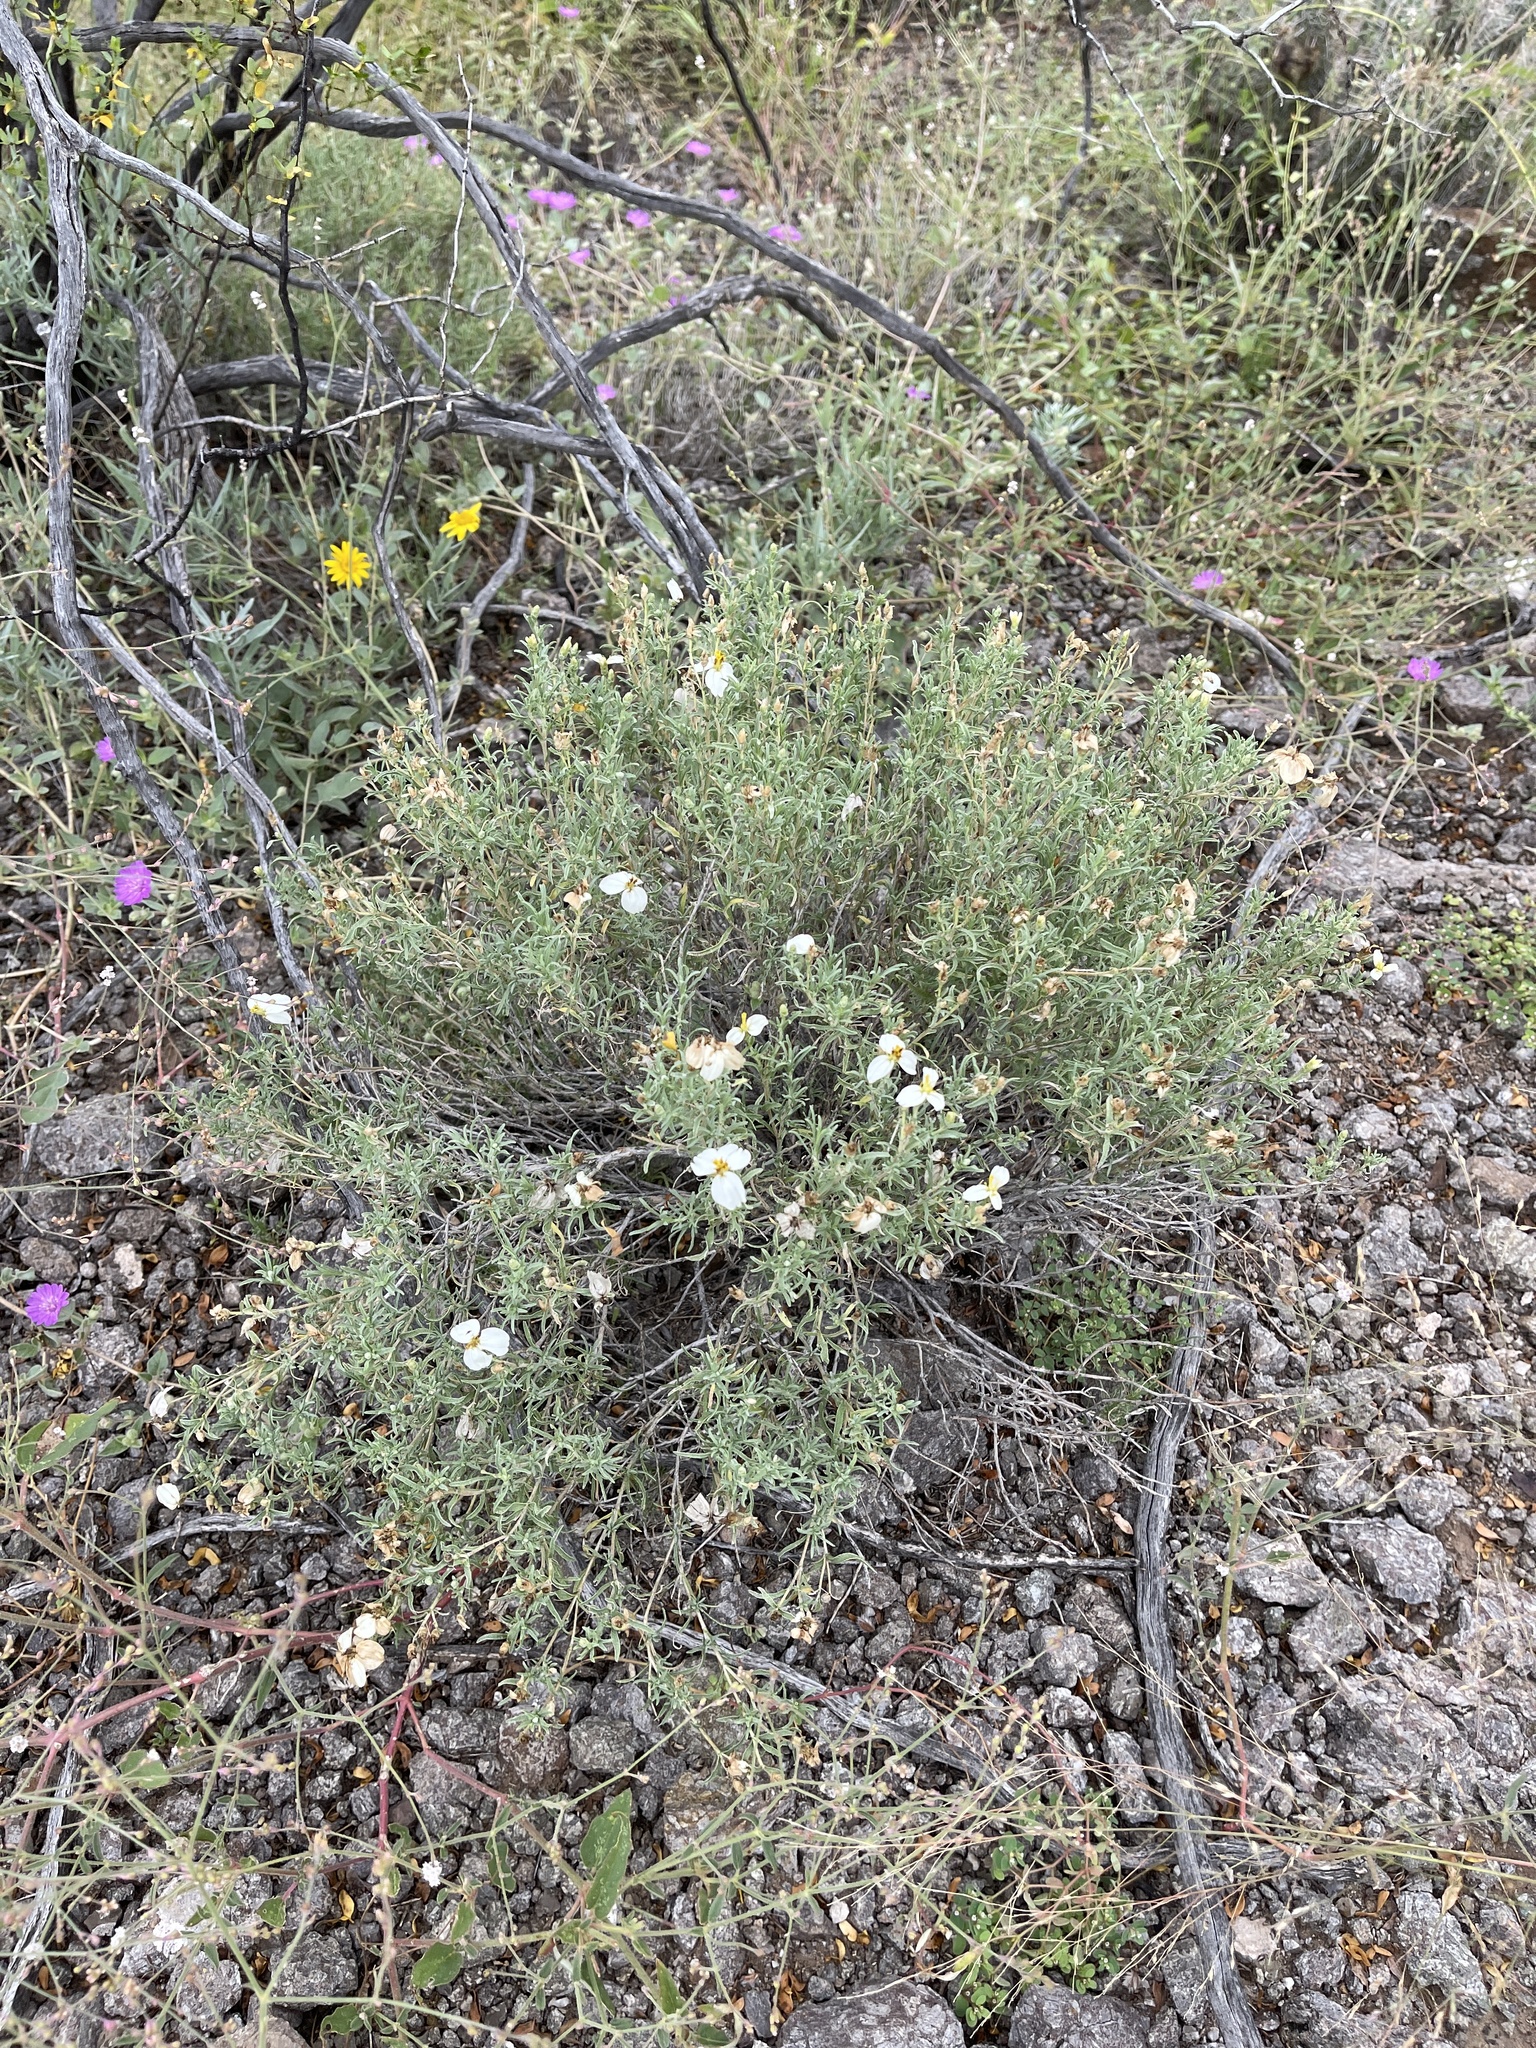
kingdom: Plantae
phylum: Tracheophyta
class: Magnoliopsida
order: Asterales
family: Asteraceae
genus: Zinnia
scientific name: Zinnia acerosa
